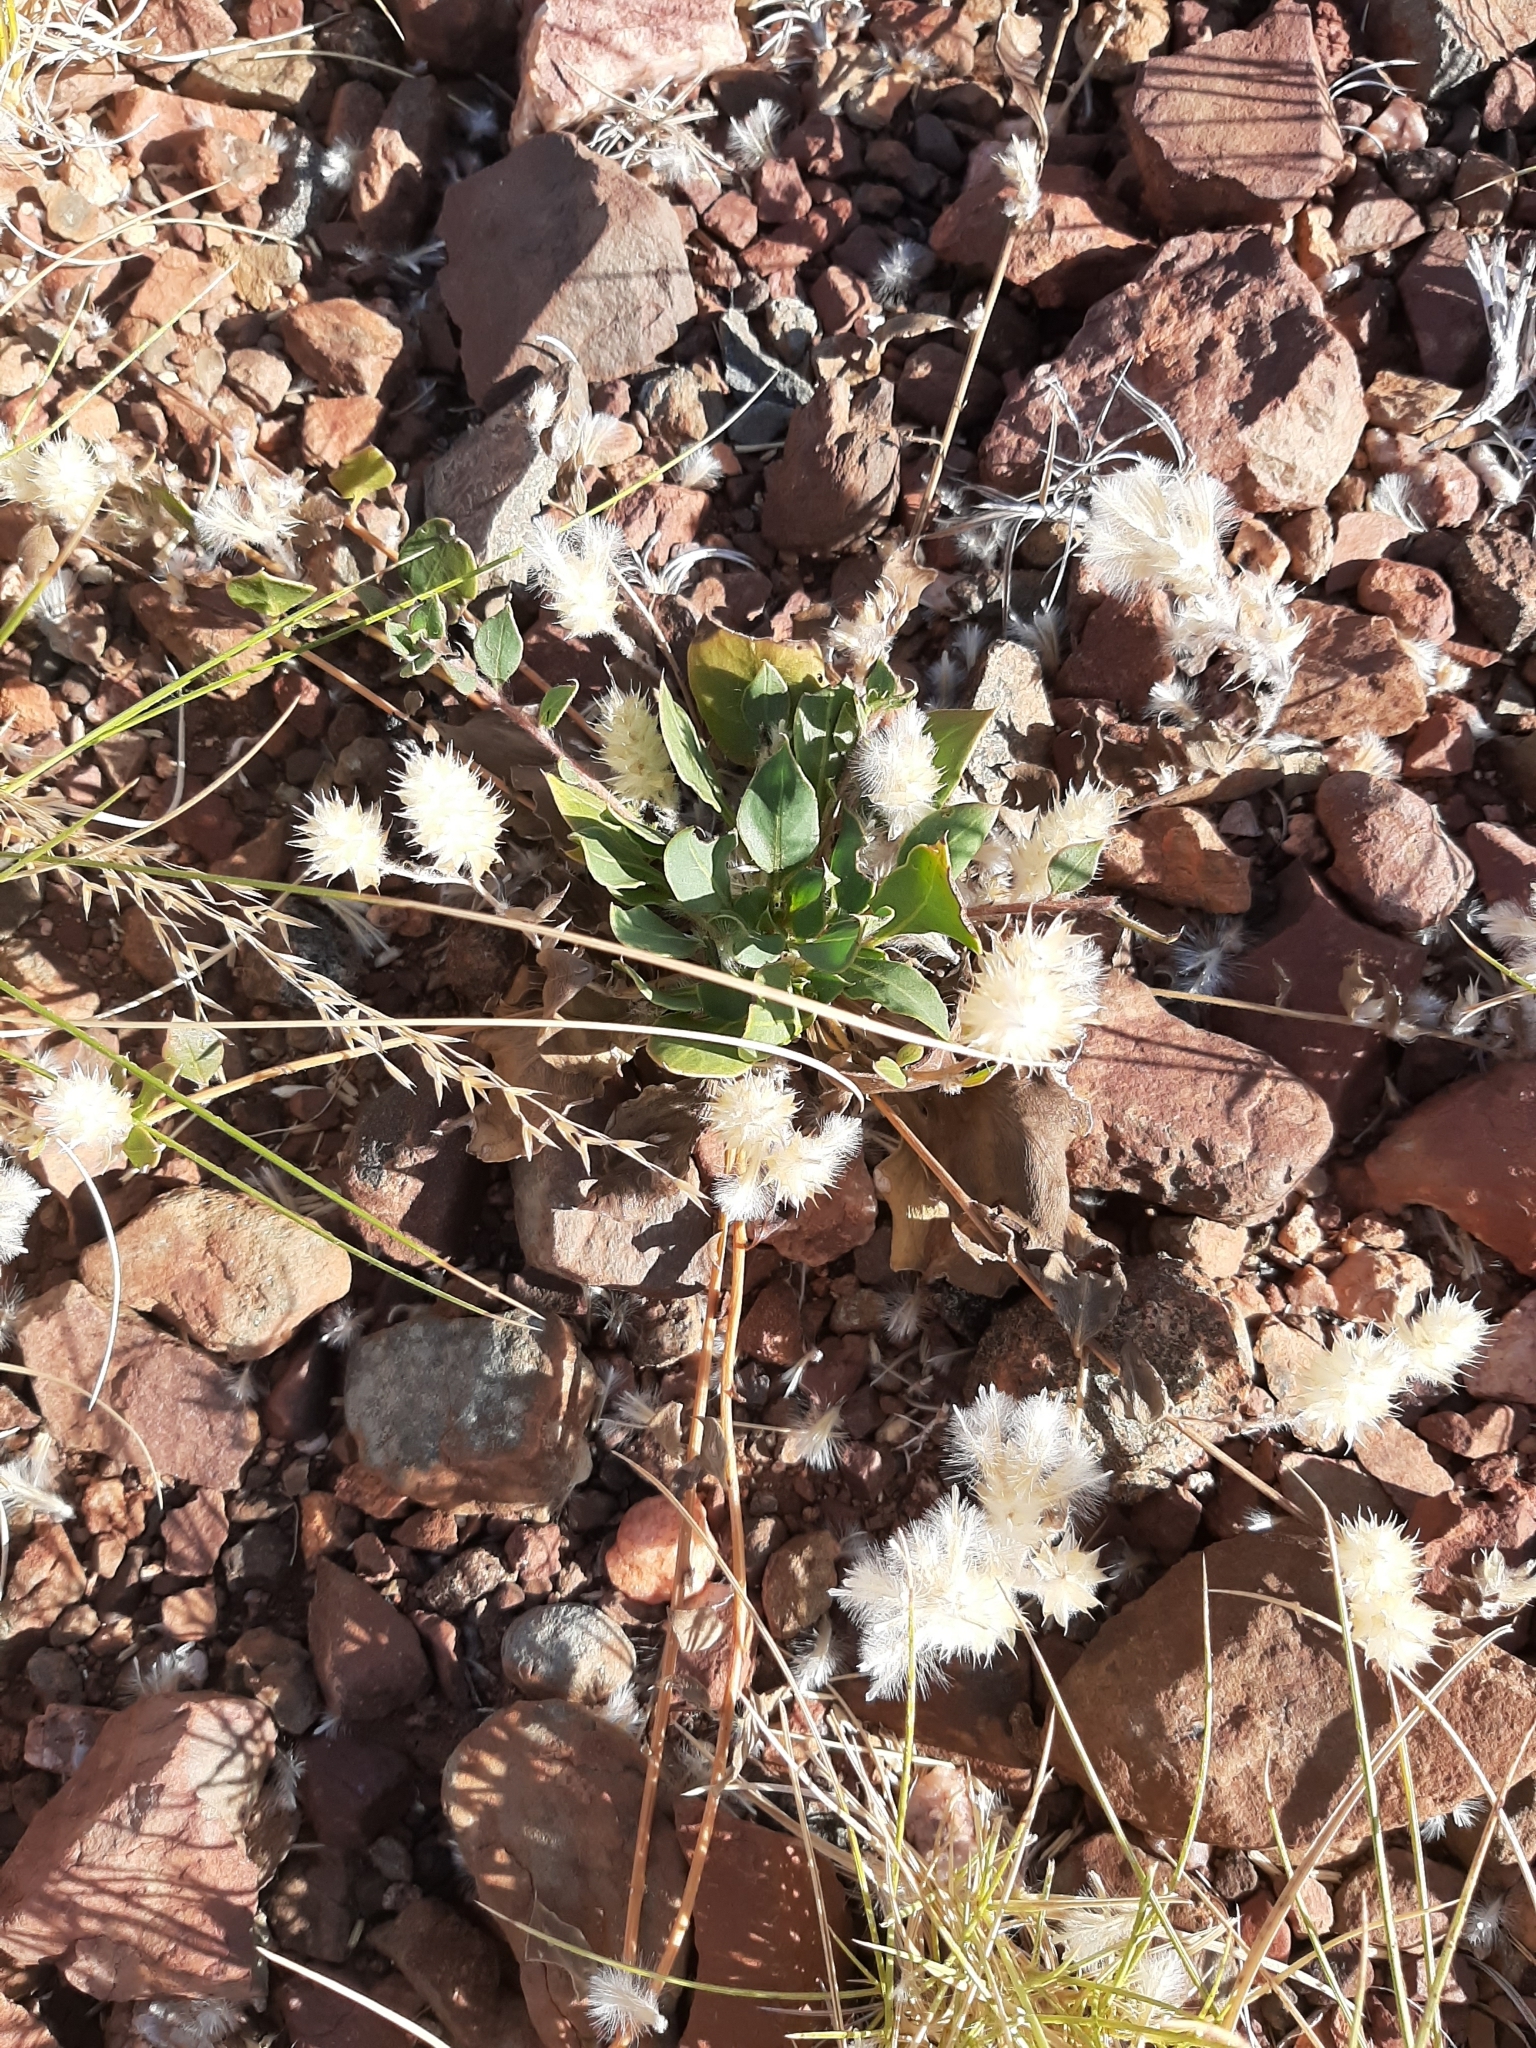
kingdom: Plantae
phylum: Tracheophyta
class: Magnoliopsida
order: Caryophyllales
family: Amaranthaceae
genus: Ptilotus
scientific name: Ptilotus axillaris
